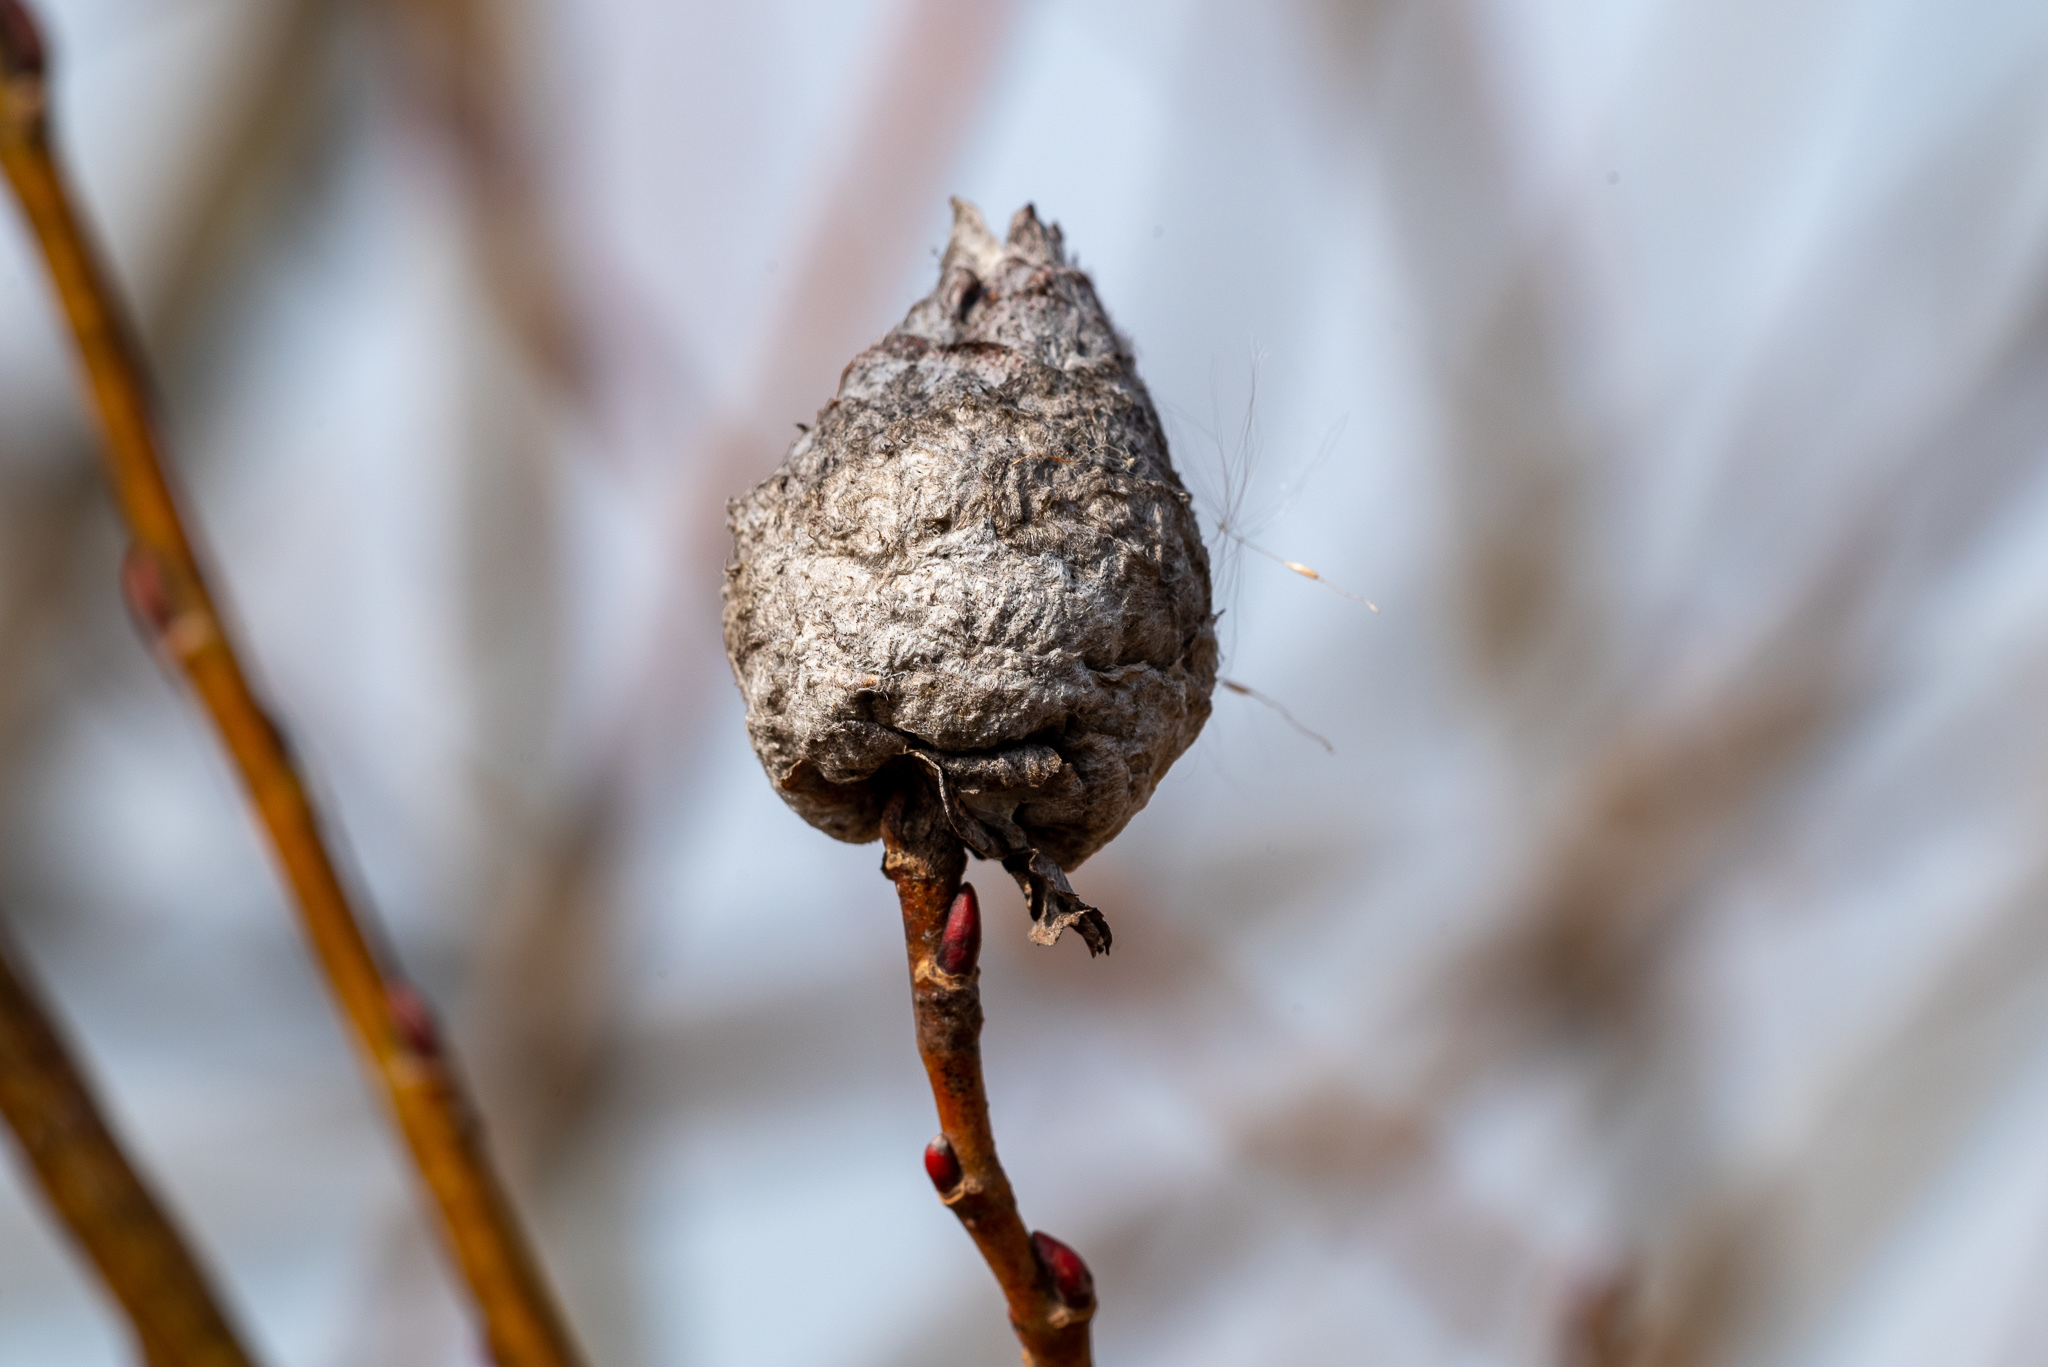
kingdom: Animalia
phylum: Arthropoda
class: Insecta
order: Diptera
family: Cecidomyiidae
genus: Rabdophaga
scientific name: Rabdophaga strobiloides
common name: Willow pinecone gall midge
